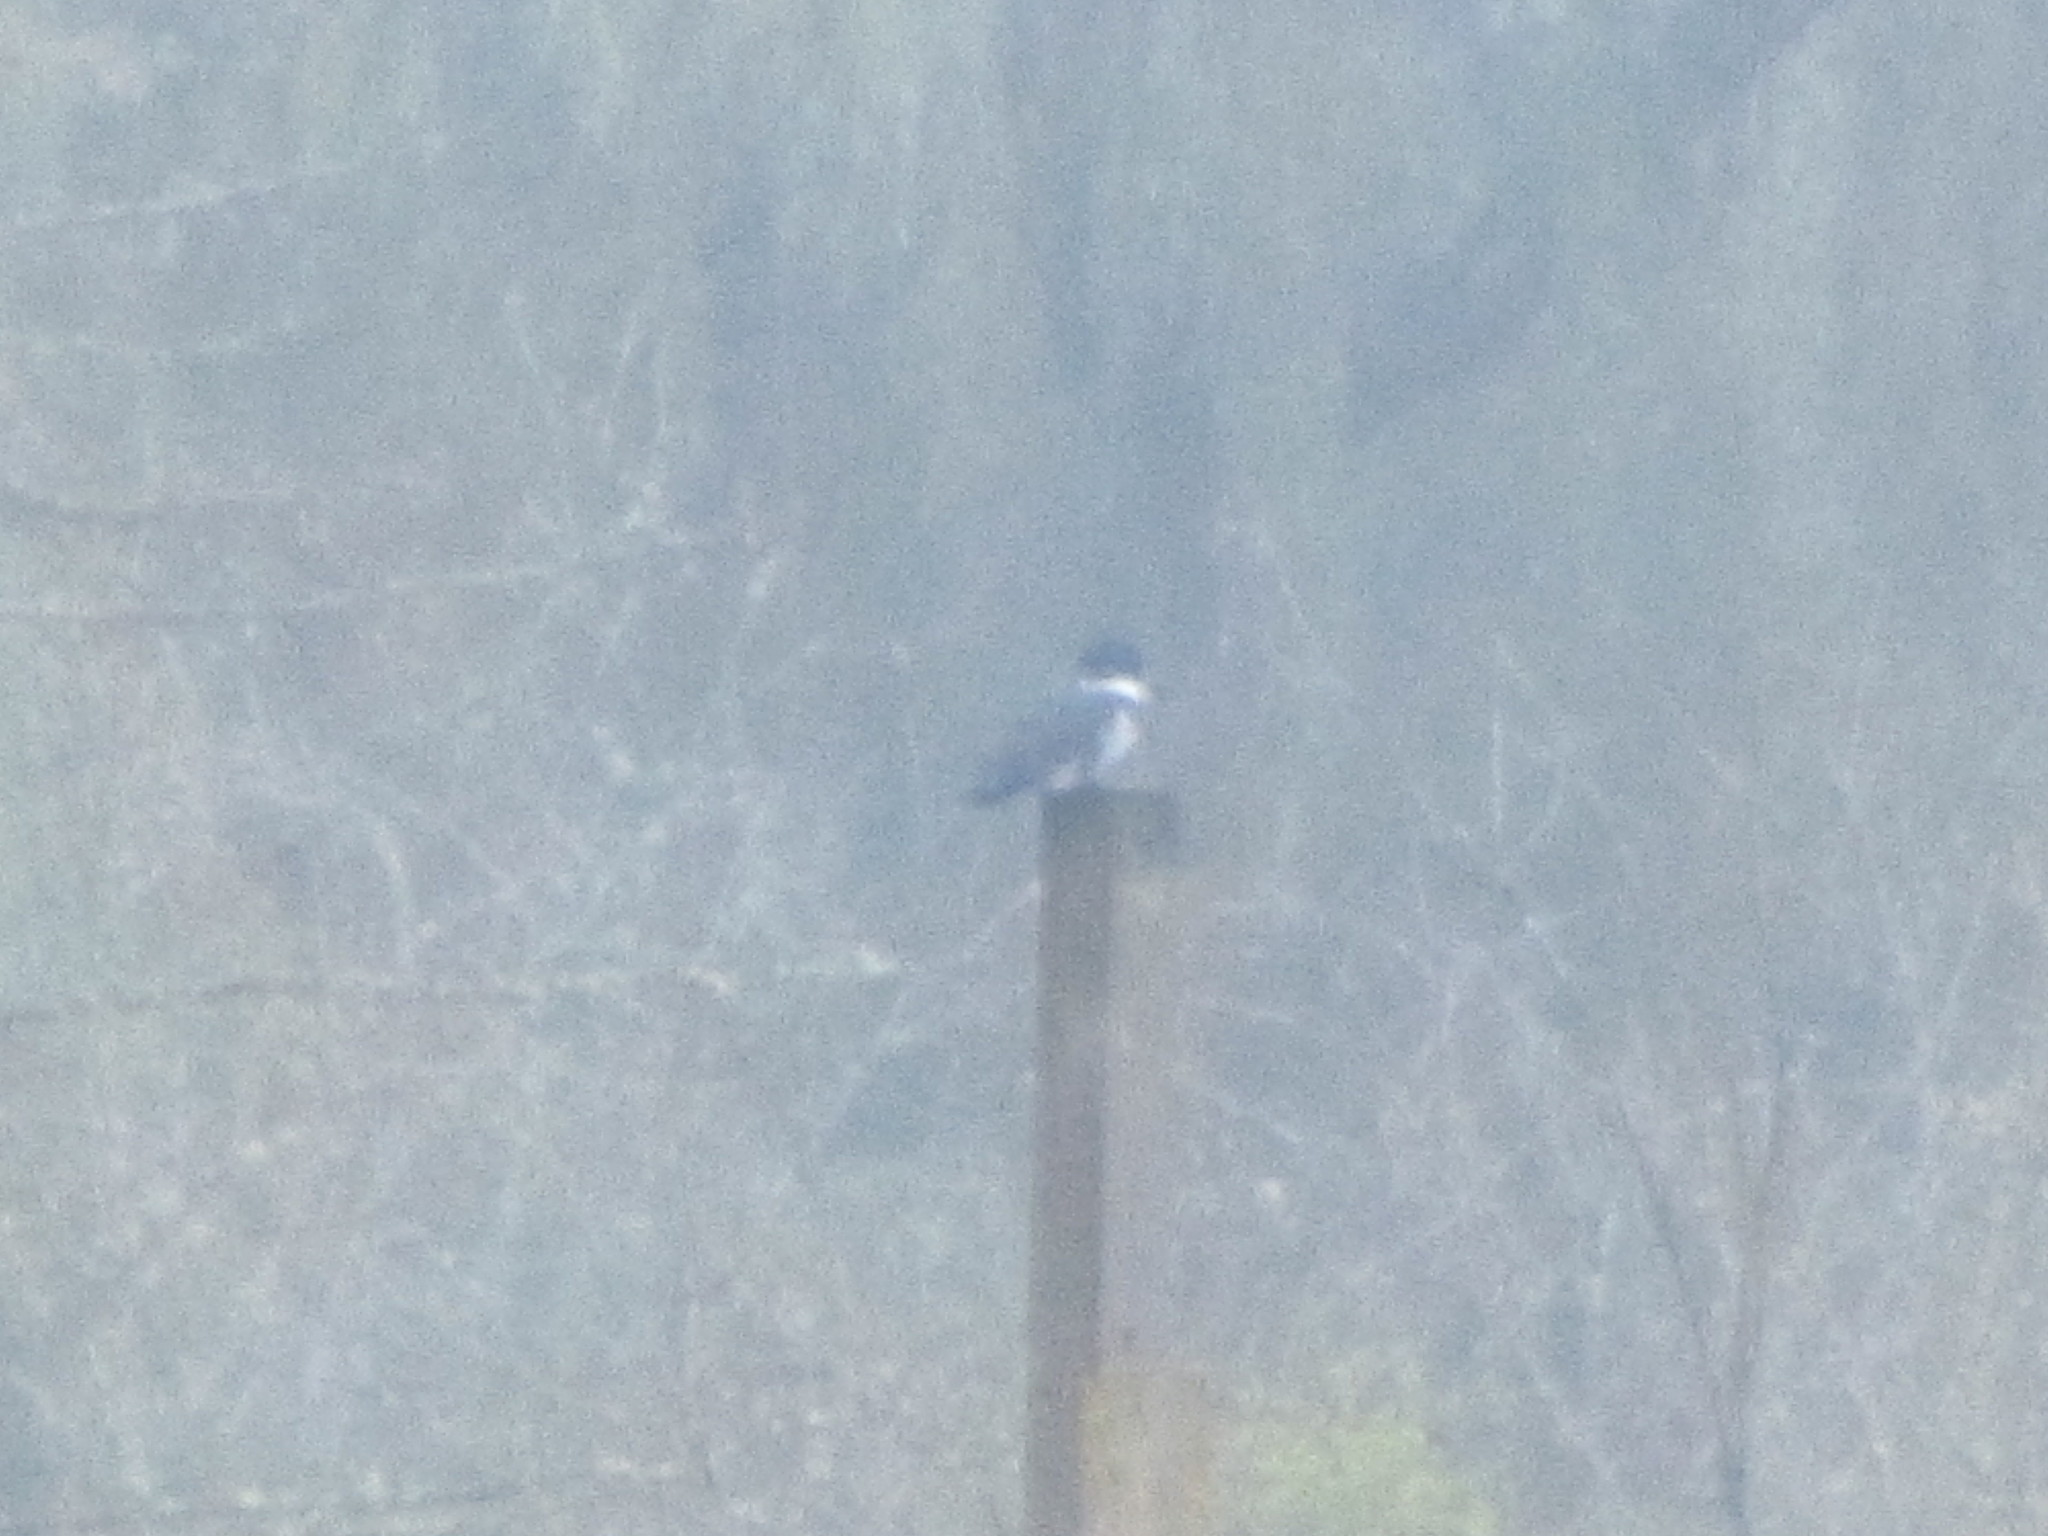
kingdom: Animalia
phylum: Chordata
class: Aves
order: Coraciiformes
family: Alcedinidae
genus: Megaceryle
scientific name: Megaceryle alcyon
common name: Belted kingfisher
